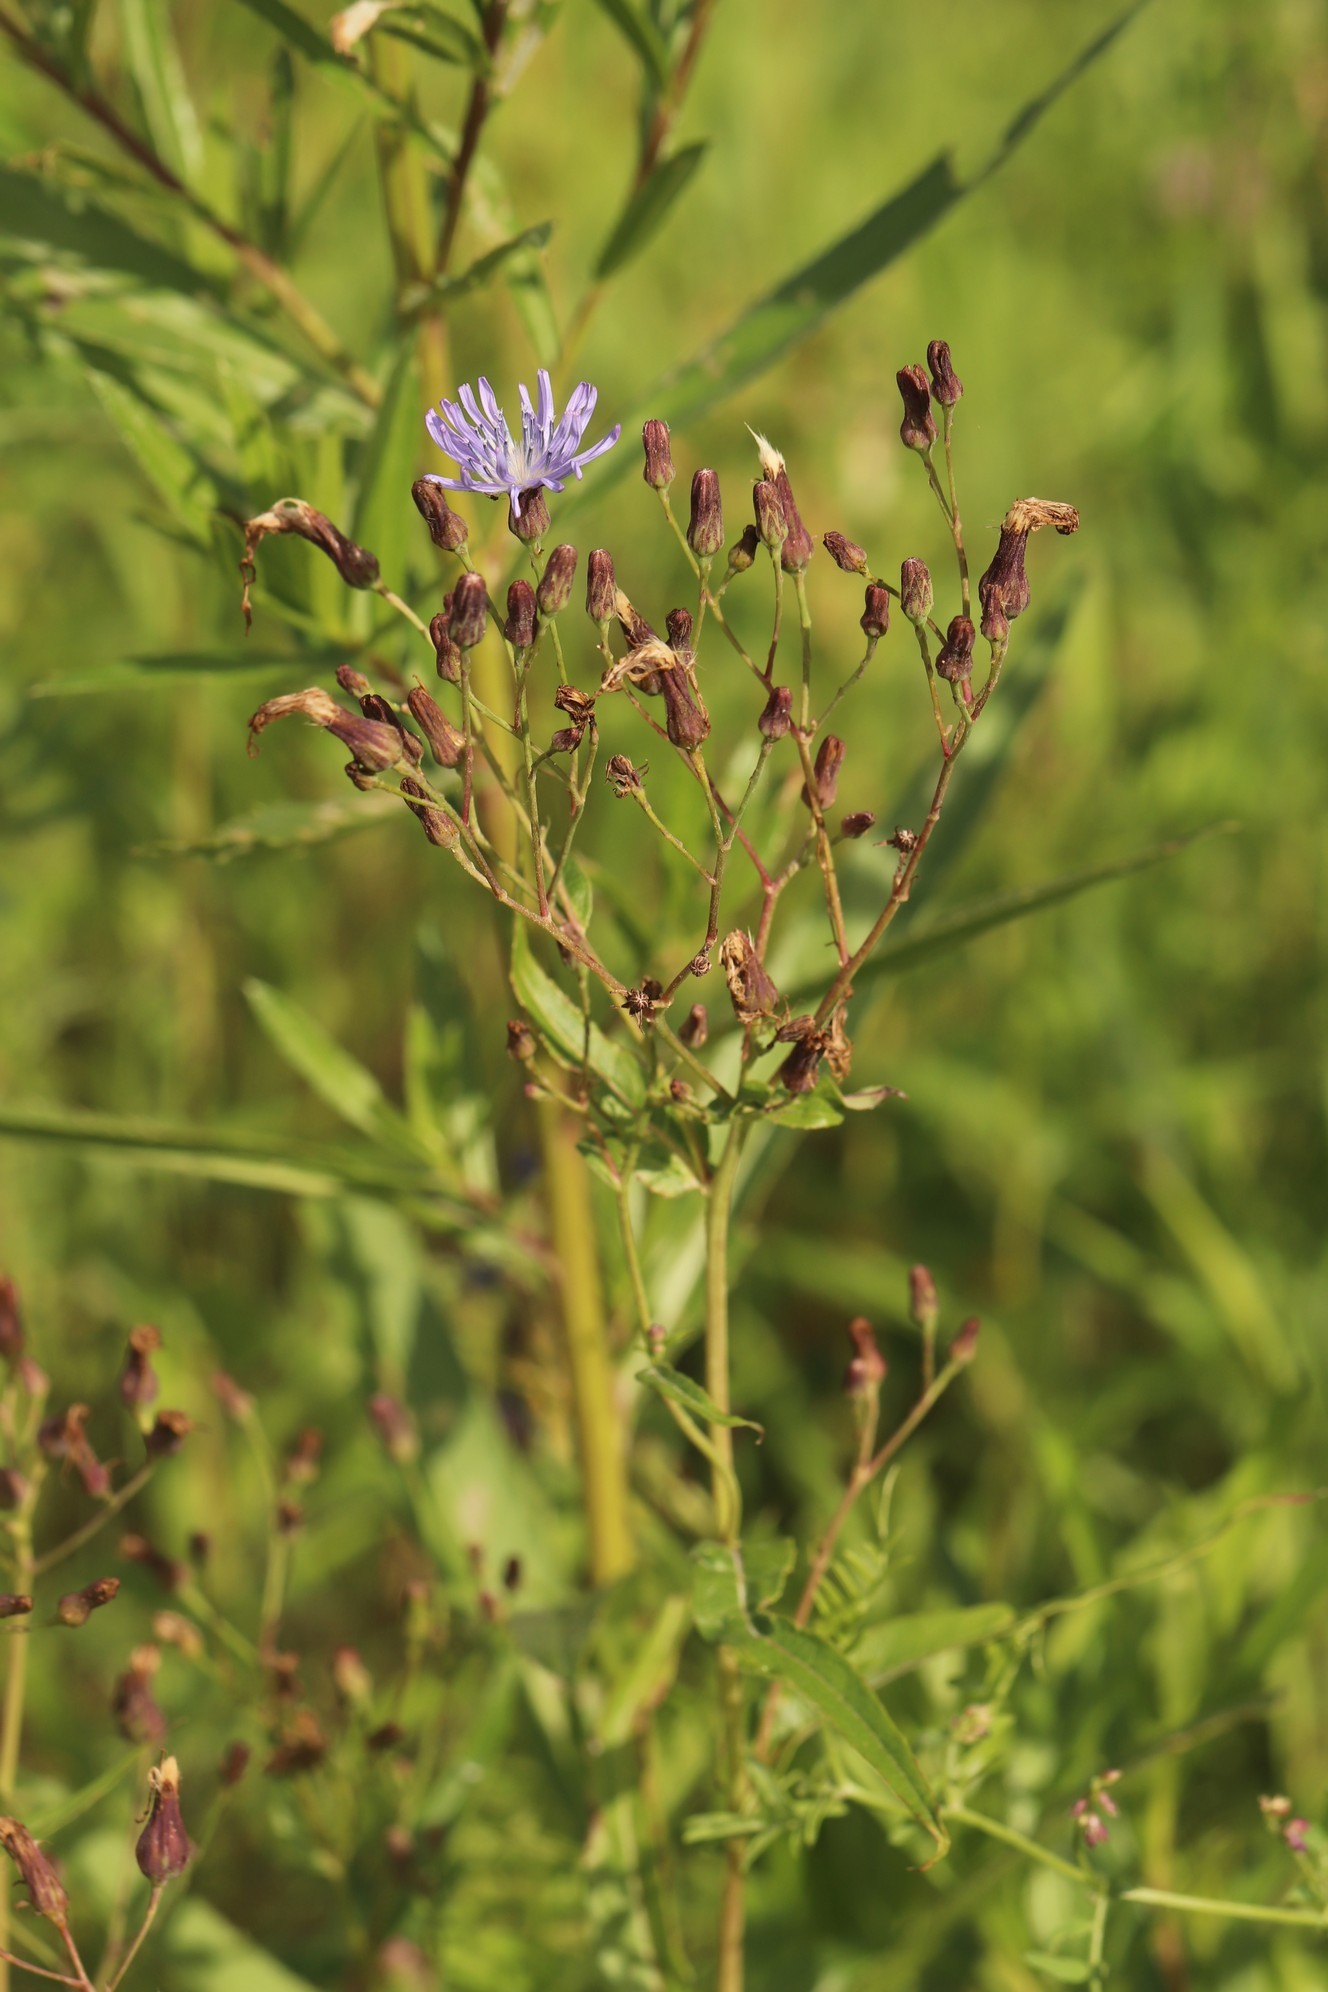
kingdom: Plantae
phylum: Tracheophyta
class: Magnoliopsida
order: Asterales
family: Asteraceae
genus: Lactuca
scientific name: Lactuca tatarica
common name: Blue lettuce
